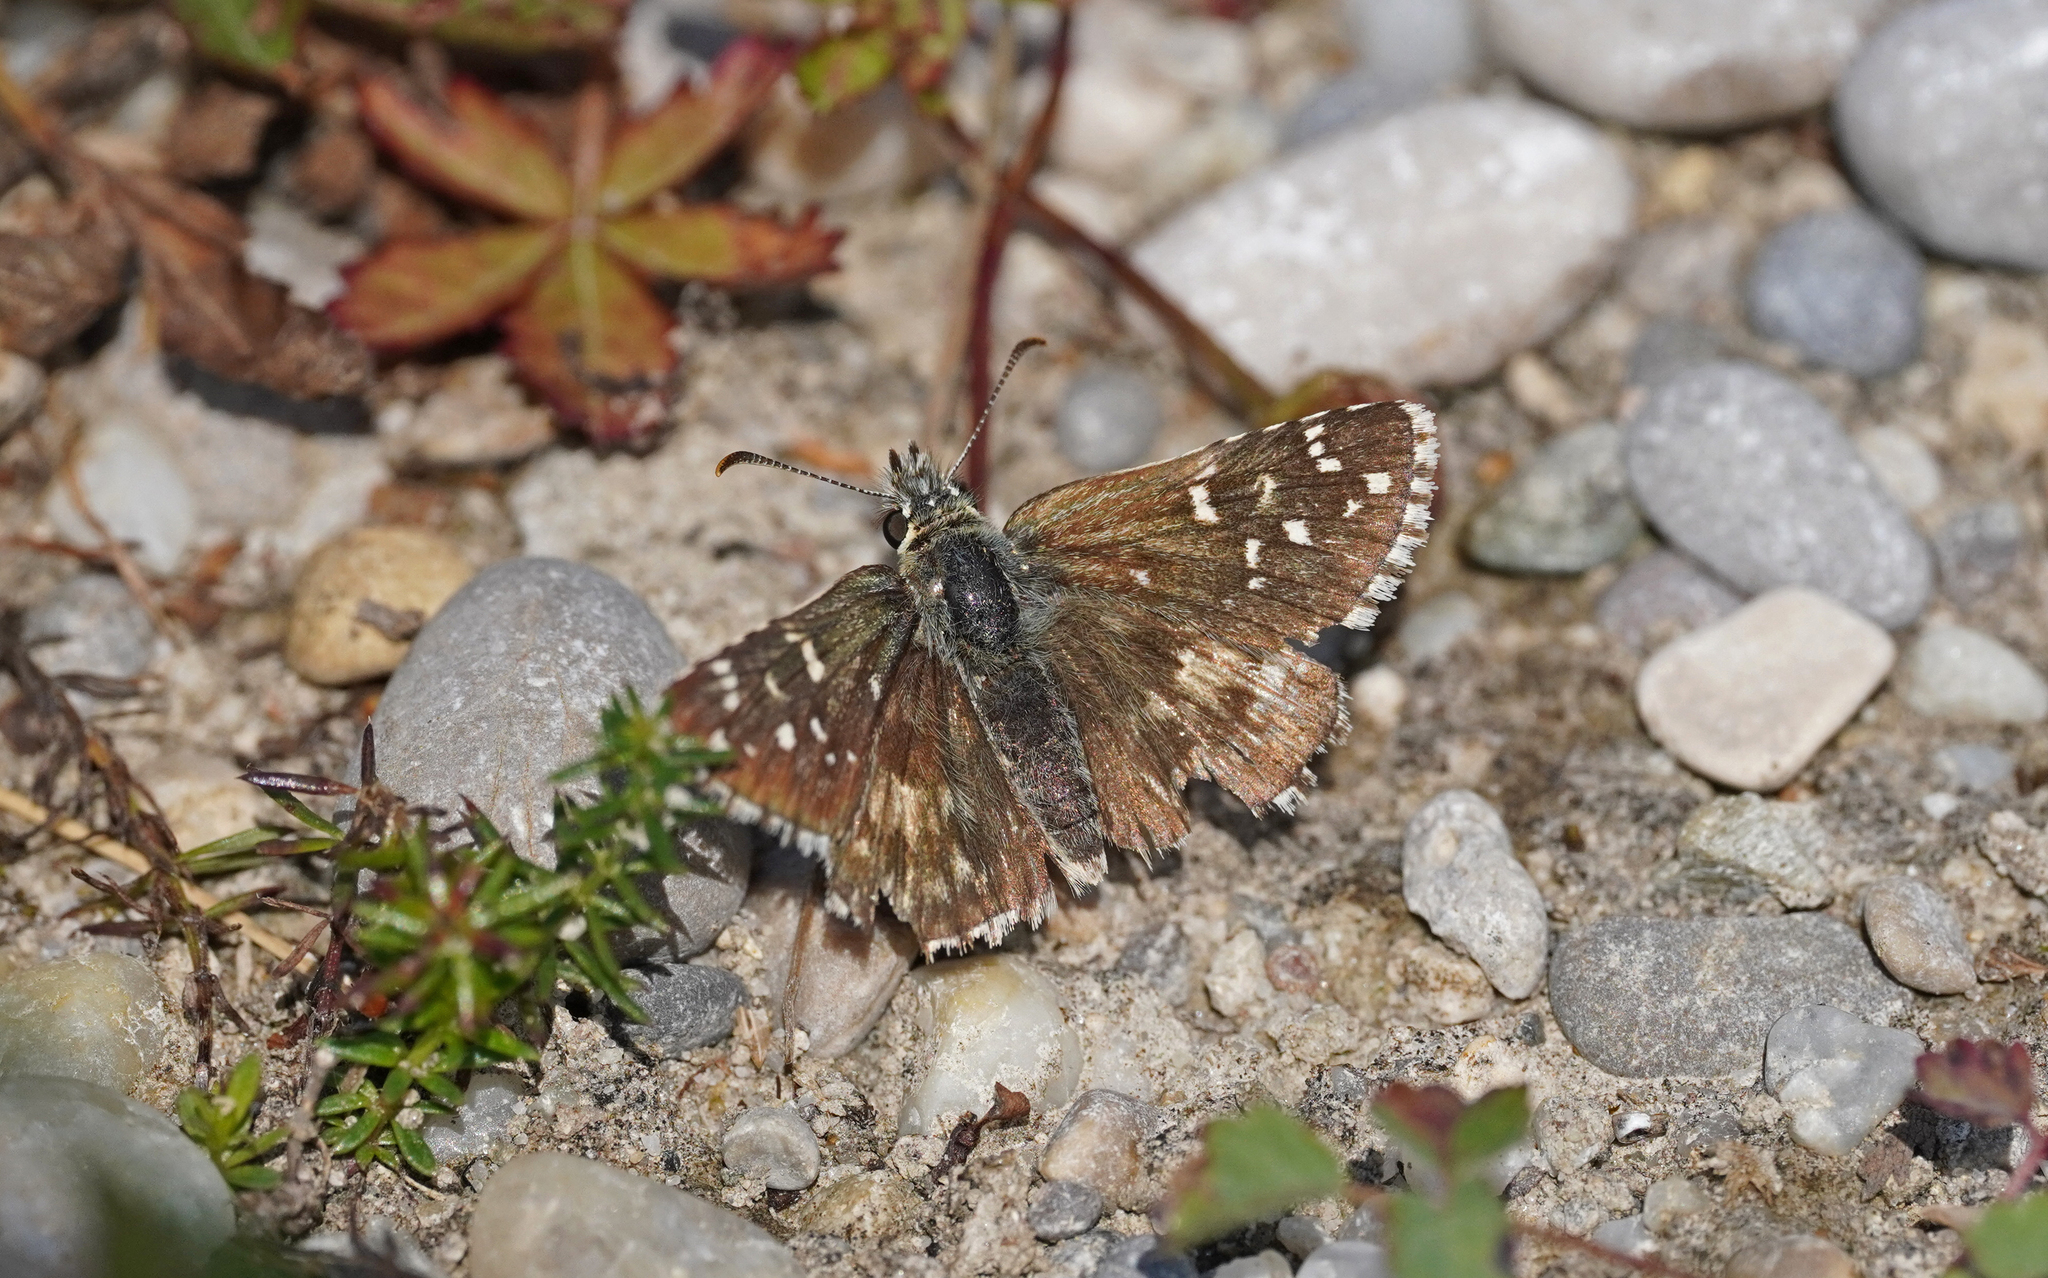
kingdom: Animalia
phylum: Arthropoda
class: Insecta
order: Lepidoptera
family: Hesperiidae
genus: Pyrgus
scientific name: Pyrgus armoricanus
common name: Oberthür's grizzled skipper
